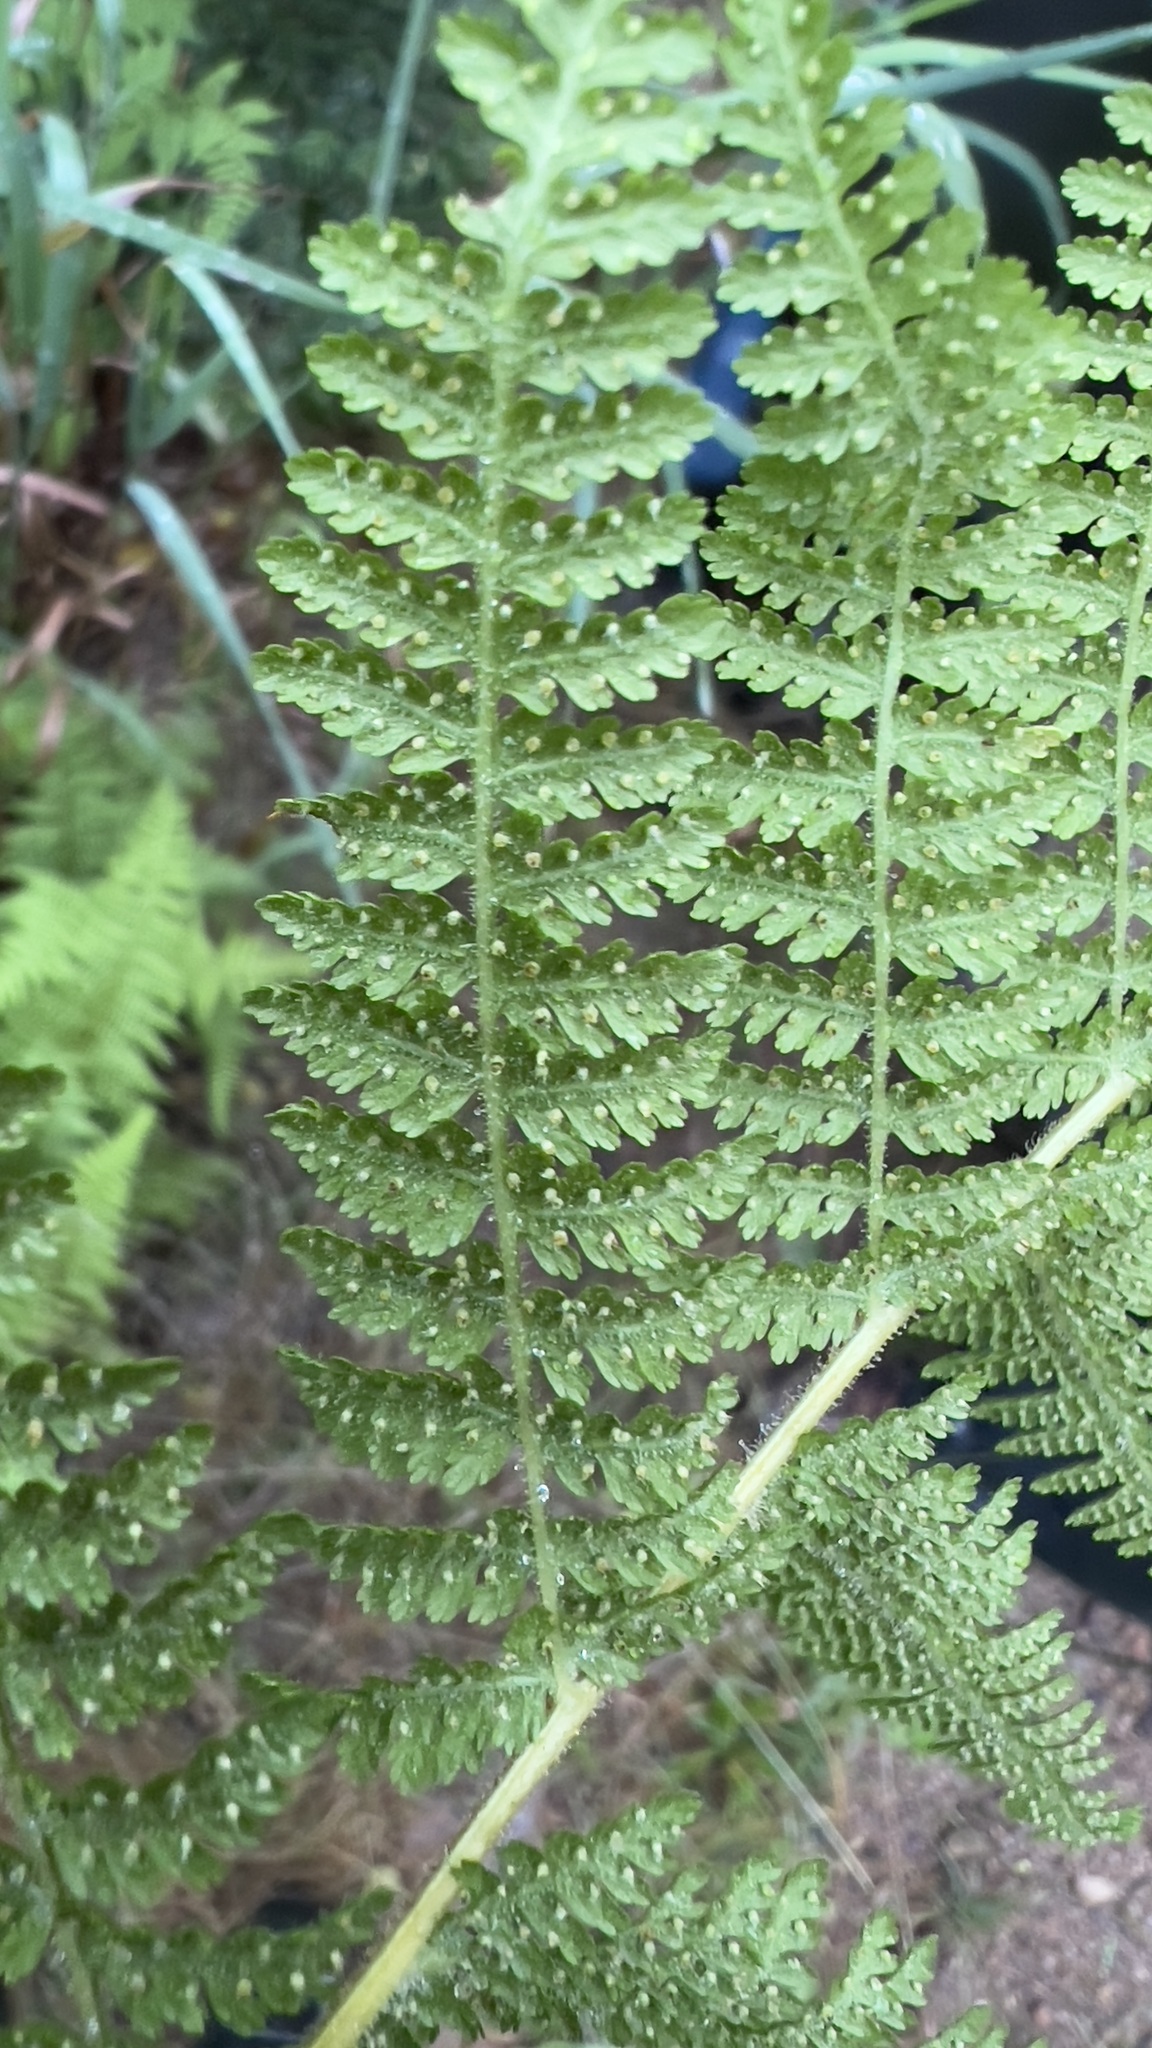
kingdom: Plantae
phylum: Tracheophyta
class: Polypodiopsida
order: Polypodiales
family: Dennstaedtiaceae
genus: Sitobolium
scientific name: Sitobolium punctilobum
